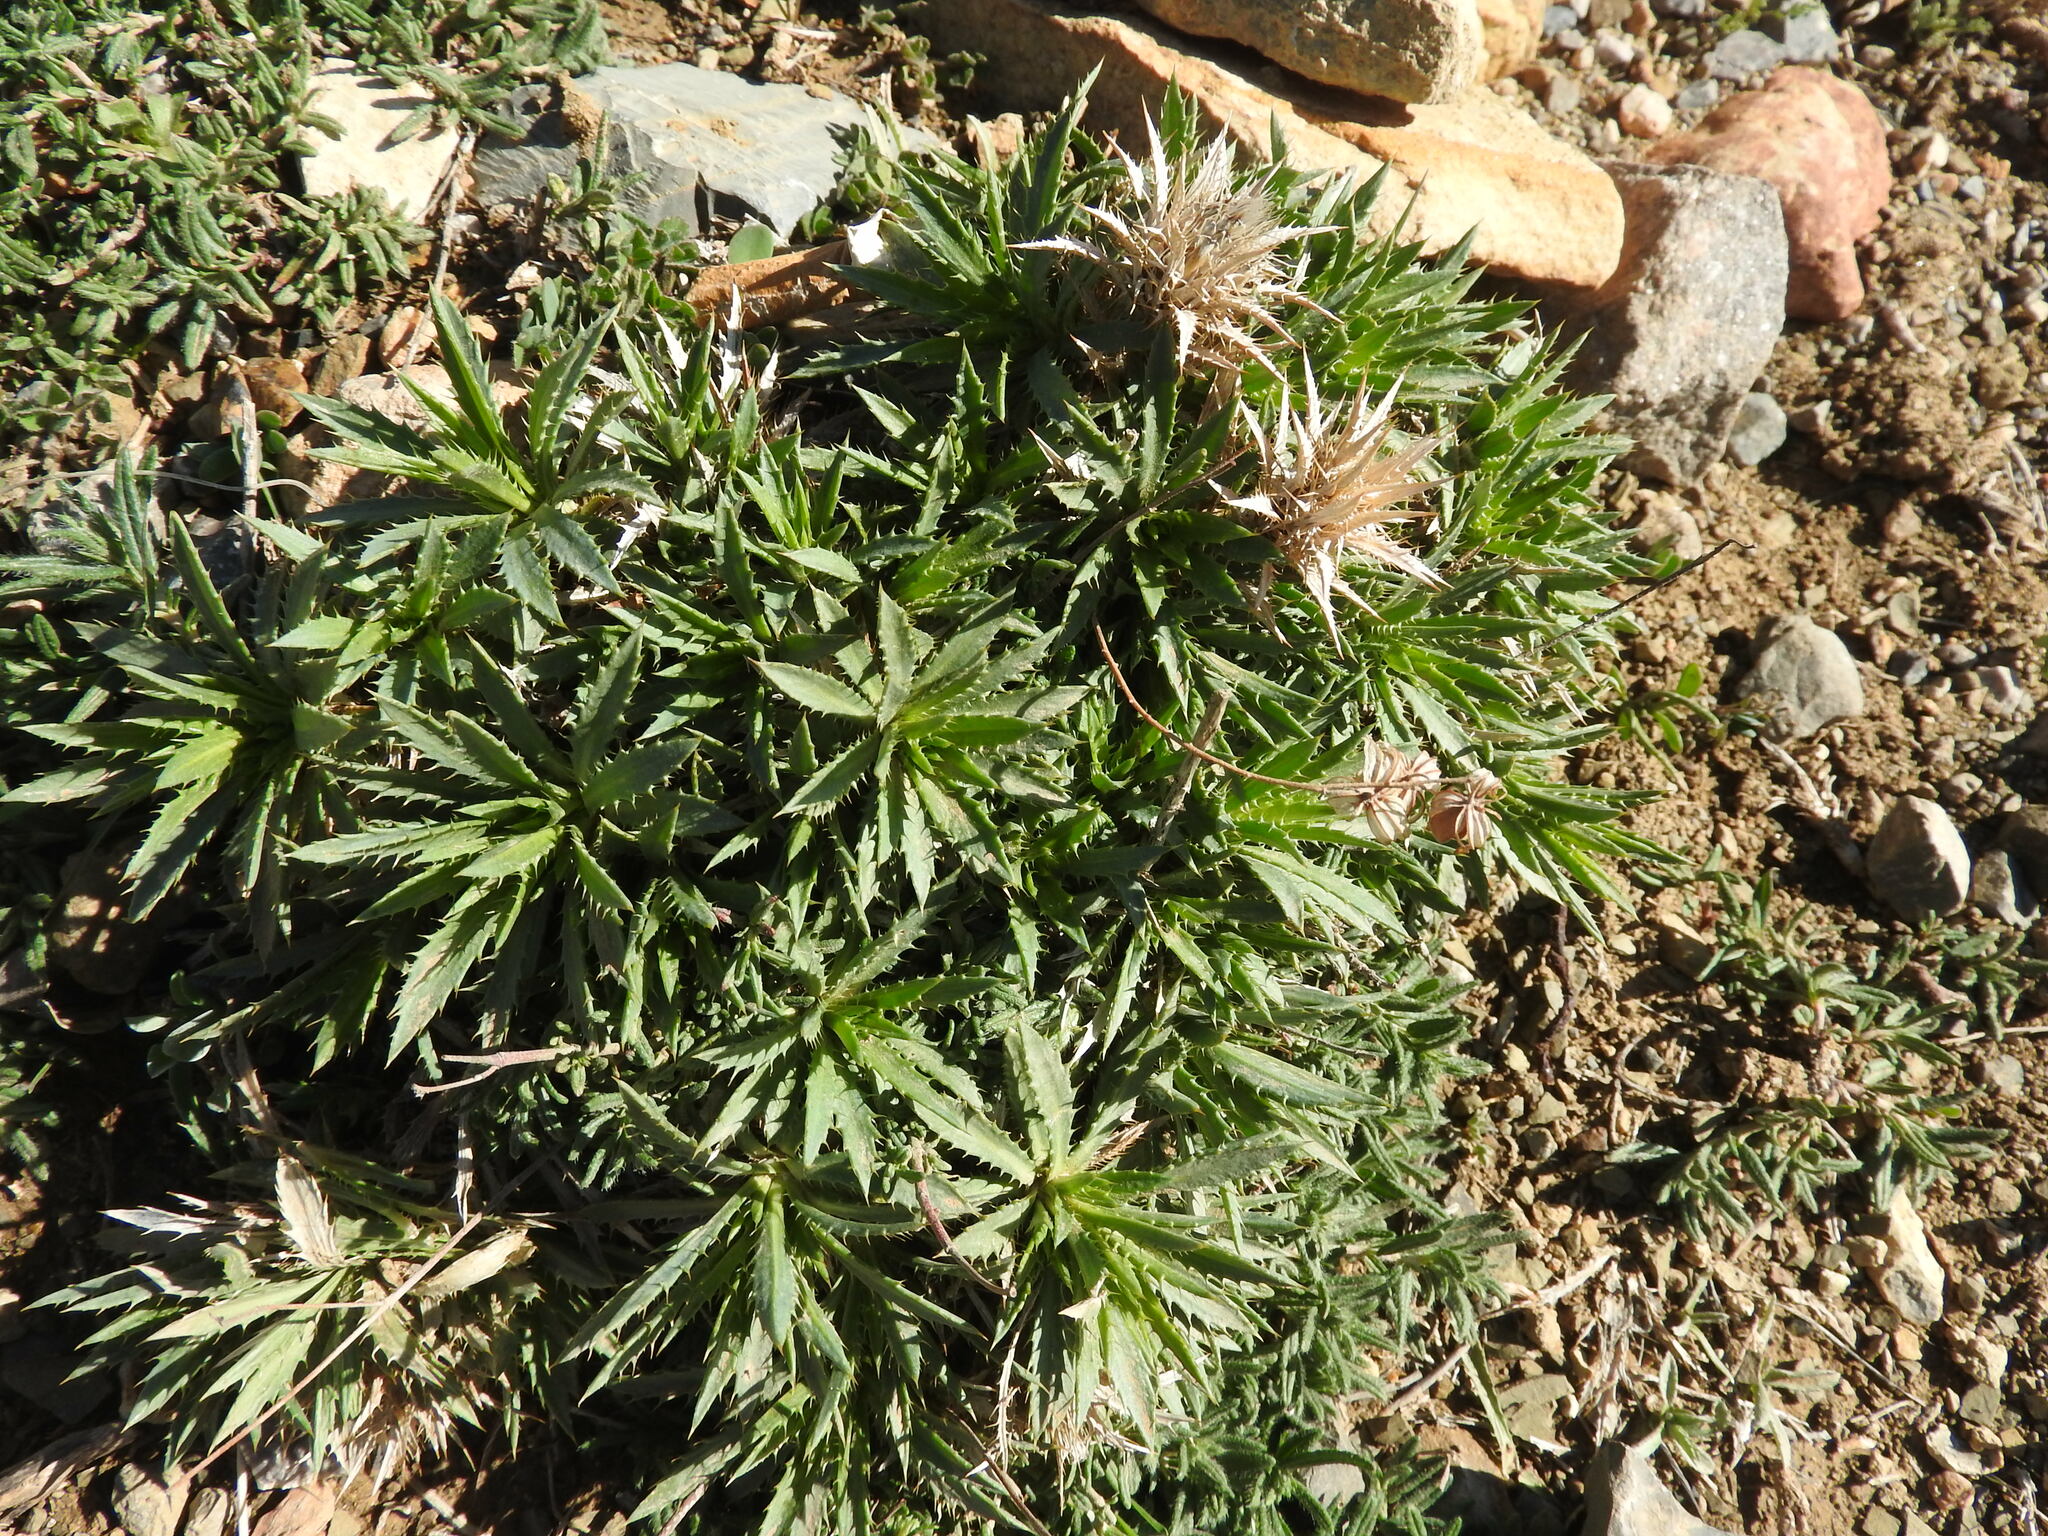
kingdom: Plantae
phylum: Tracheophyta
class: Magnoliopsida
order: Asterales
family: Asteraceae
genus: Atractylis
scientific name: Atractylis caespitosa
